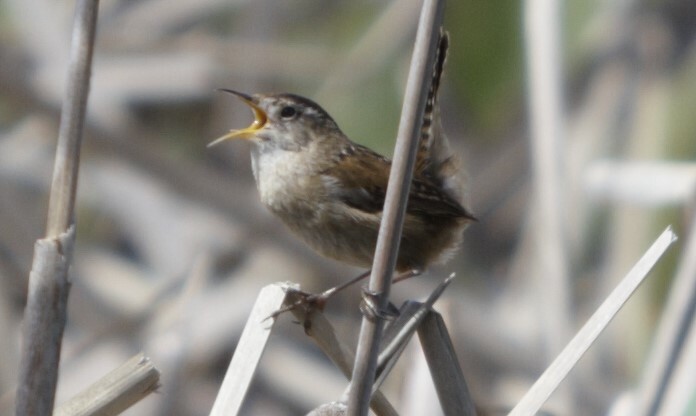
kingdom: Animalia
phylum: Chordata
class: Aves
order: Passeriformes
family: Troglodytidae
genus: Cistothorus
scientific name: Cistothorus palustris
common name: Marsh wren
